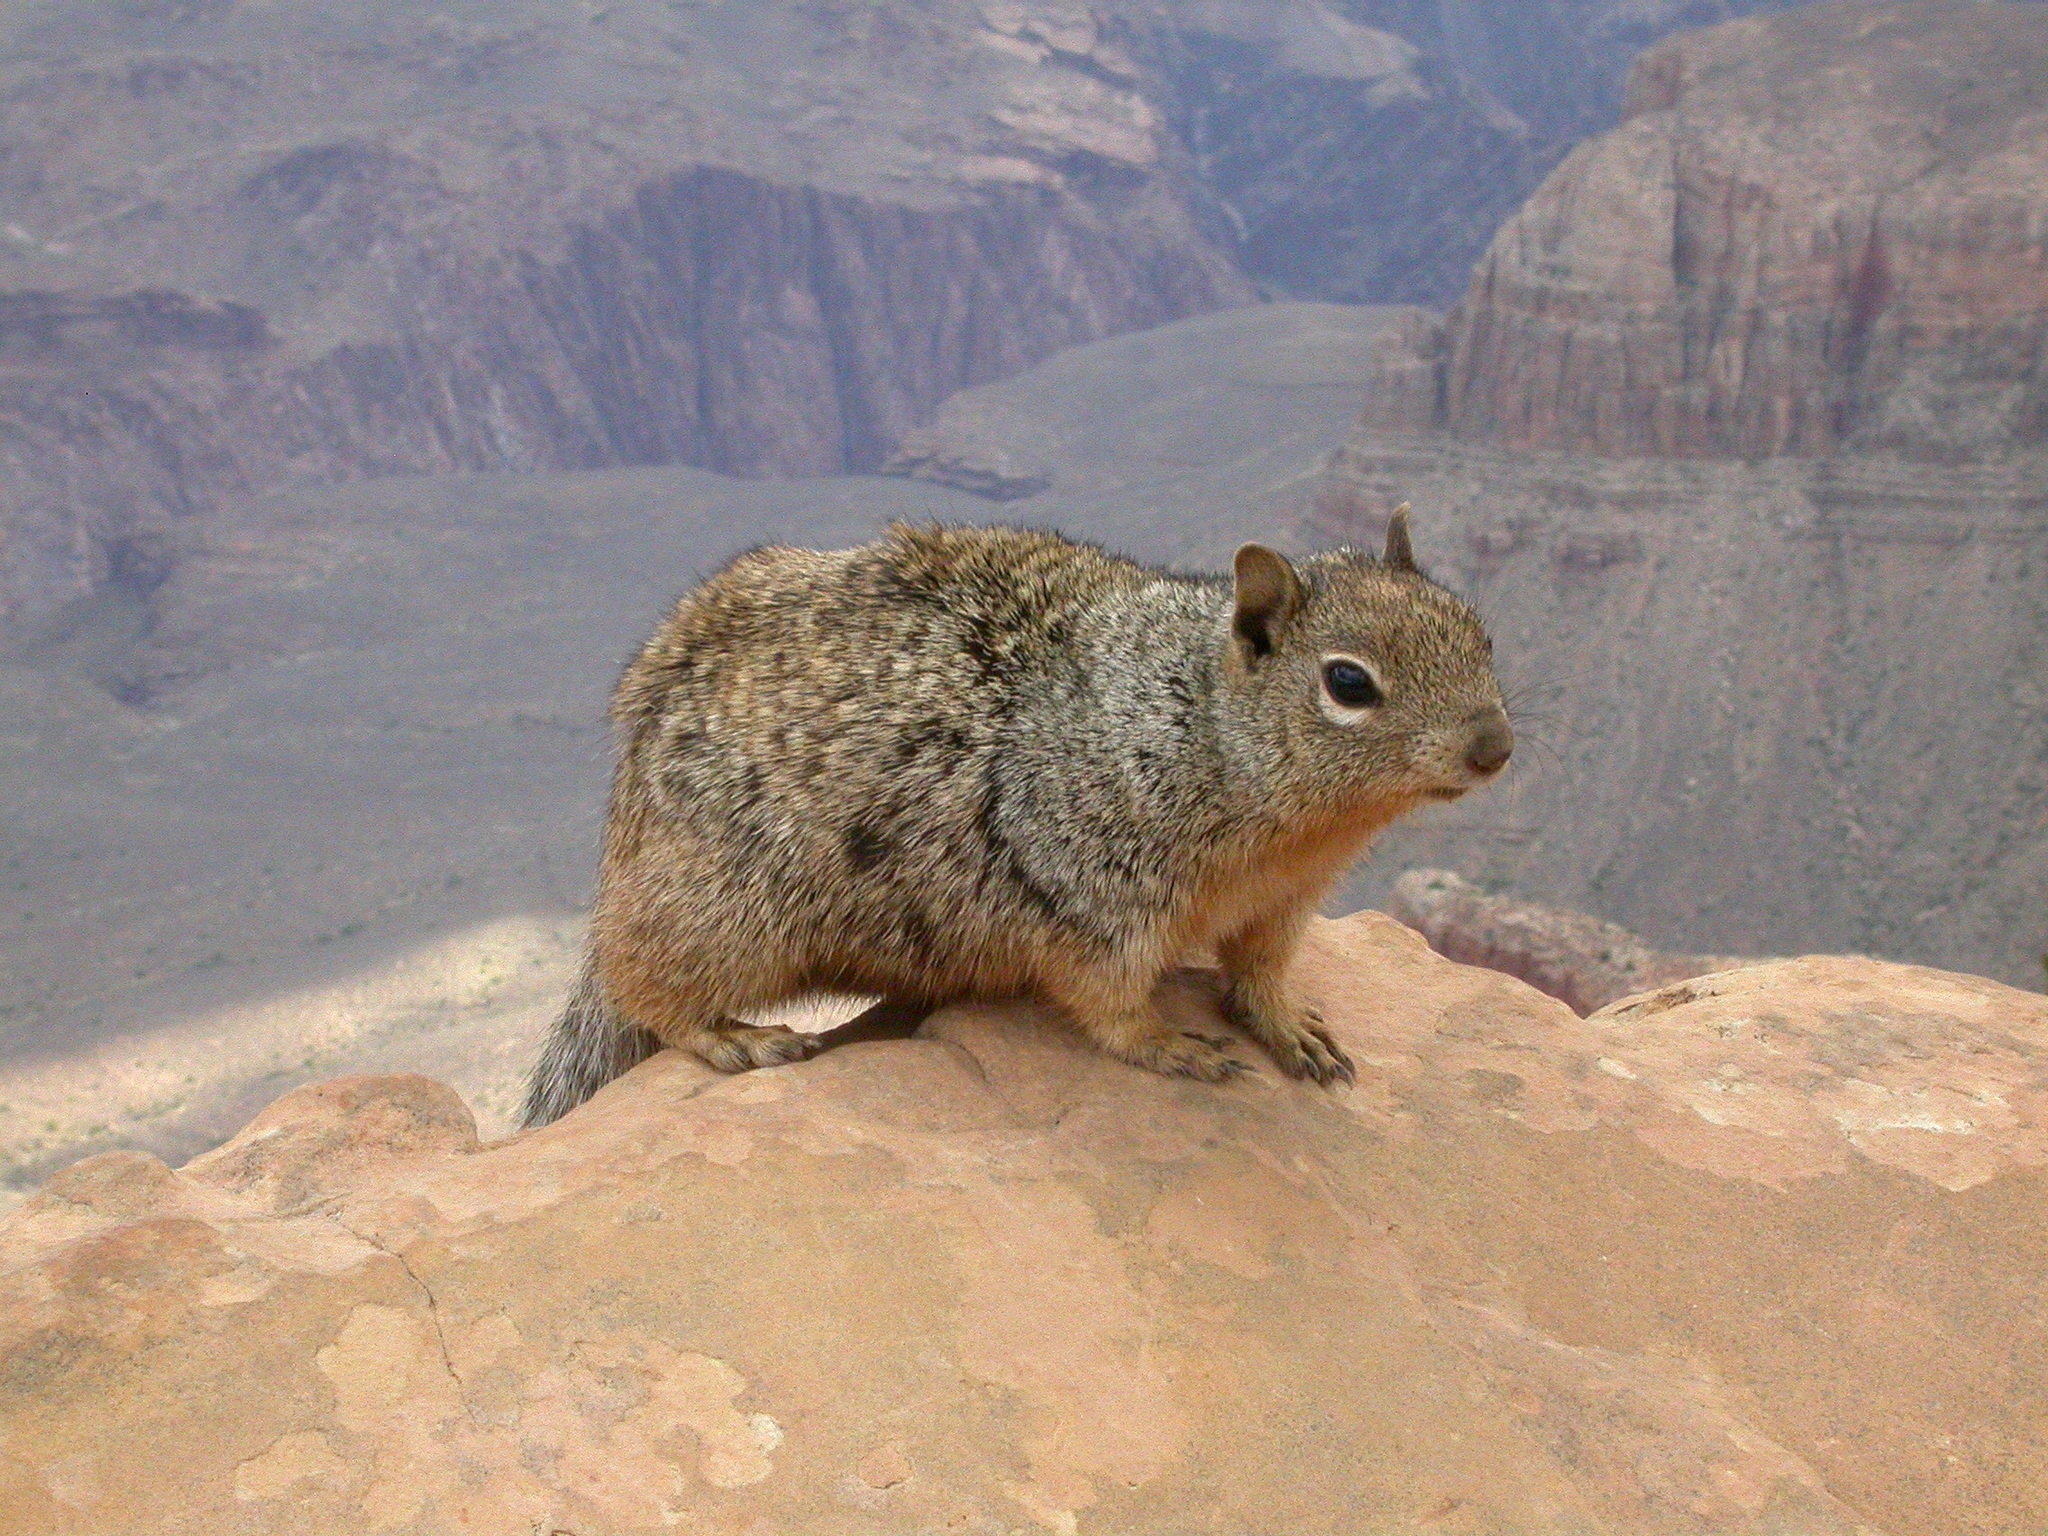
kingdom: Animalia
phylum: Chordata
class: Mammalia
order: Rodentia
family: Sciuridae
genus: Otospermophilus
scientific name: Otospermophilus variegatus
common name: Rock squirrel
